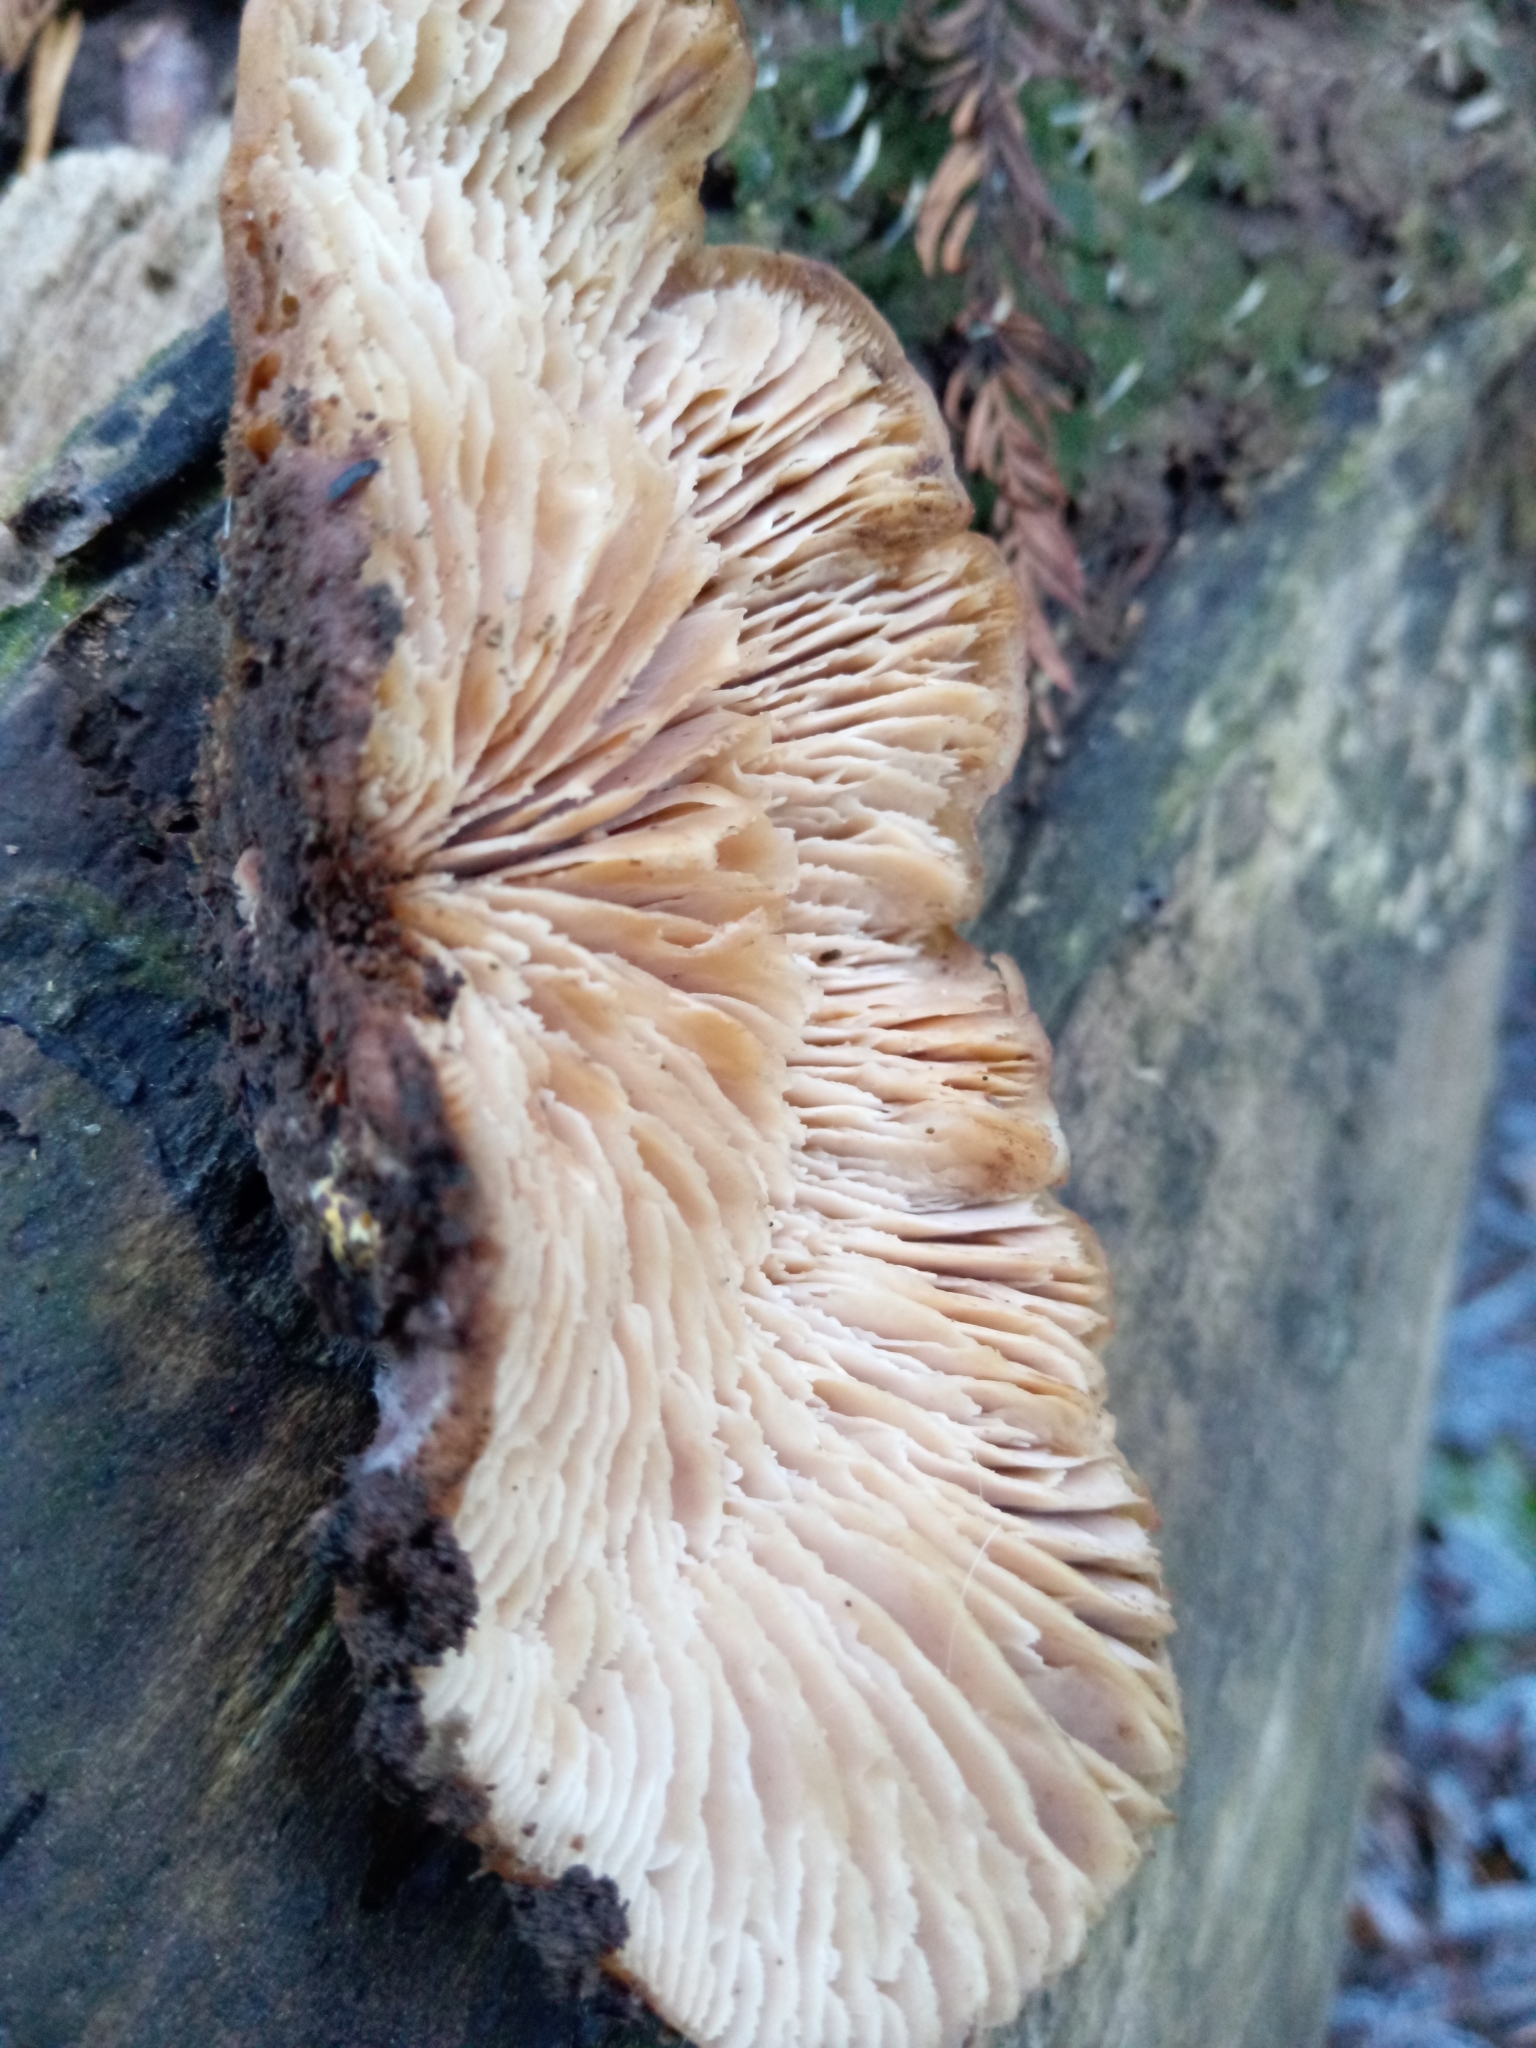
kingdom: Fungi
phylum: Basidiomycota
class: Agaricomycetes
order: Russulales
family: Auriscalpiaceae
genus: Lentinellus
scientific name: Lentinellus ursinus
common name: Bear lentinus
